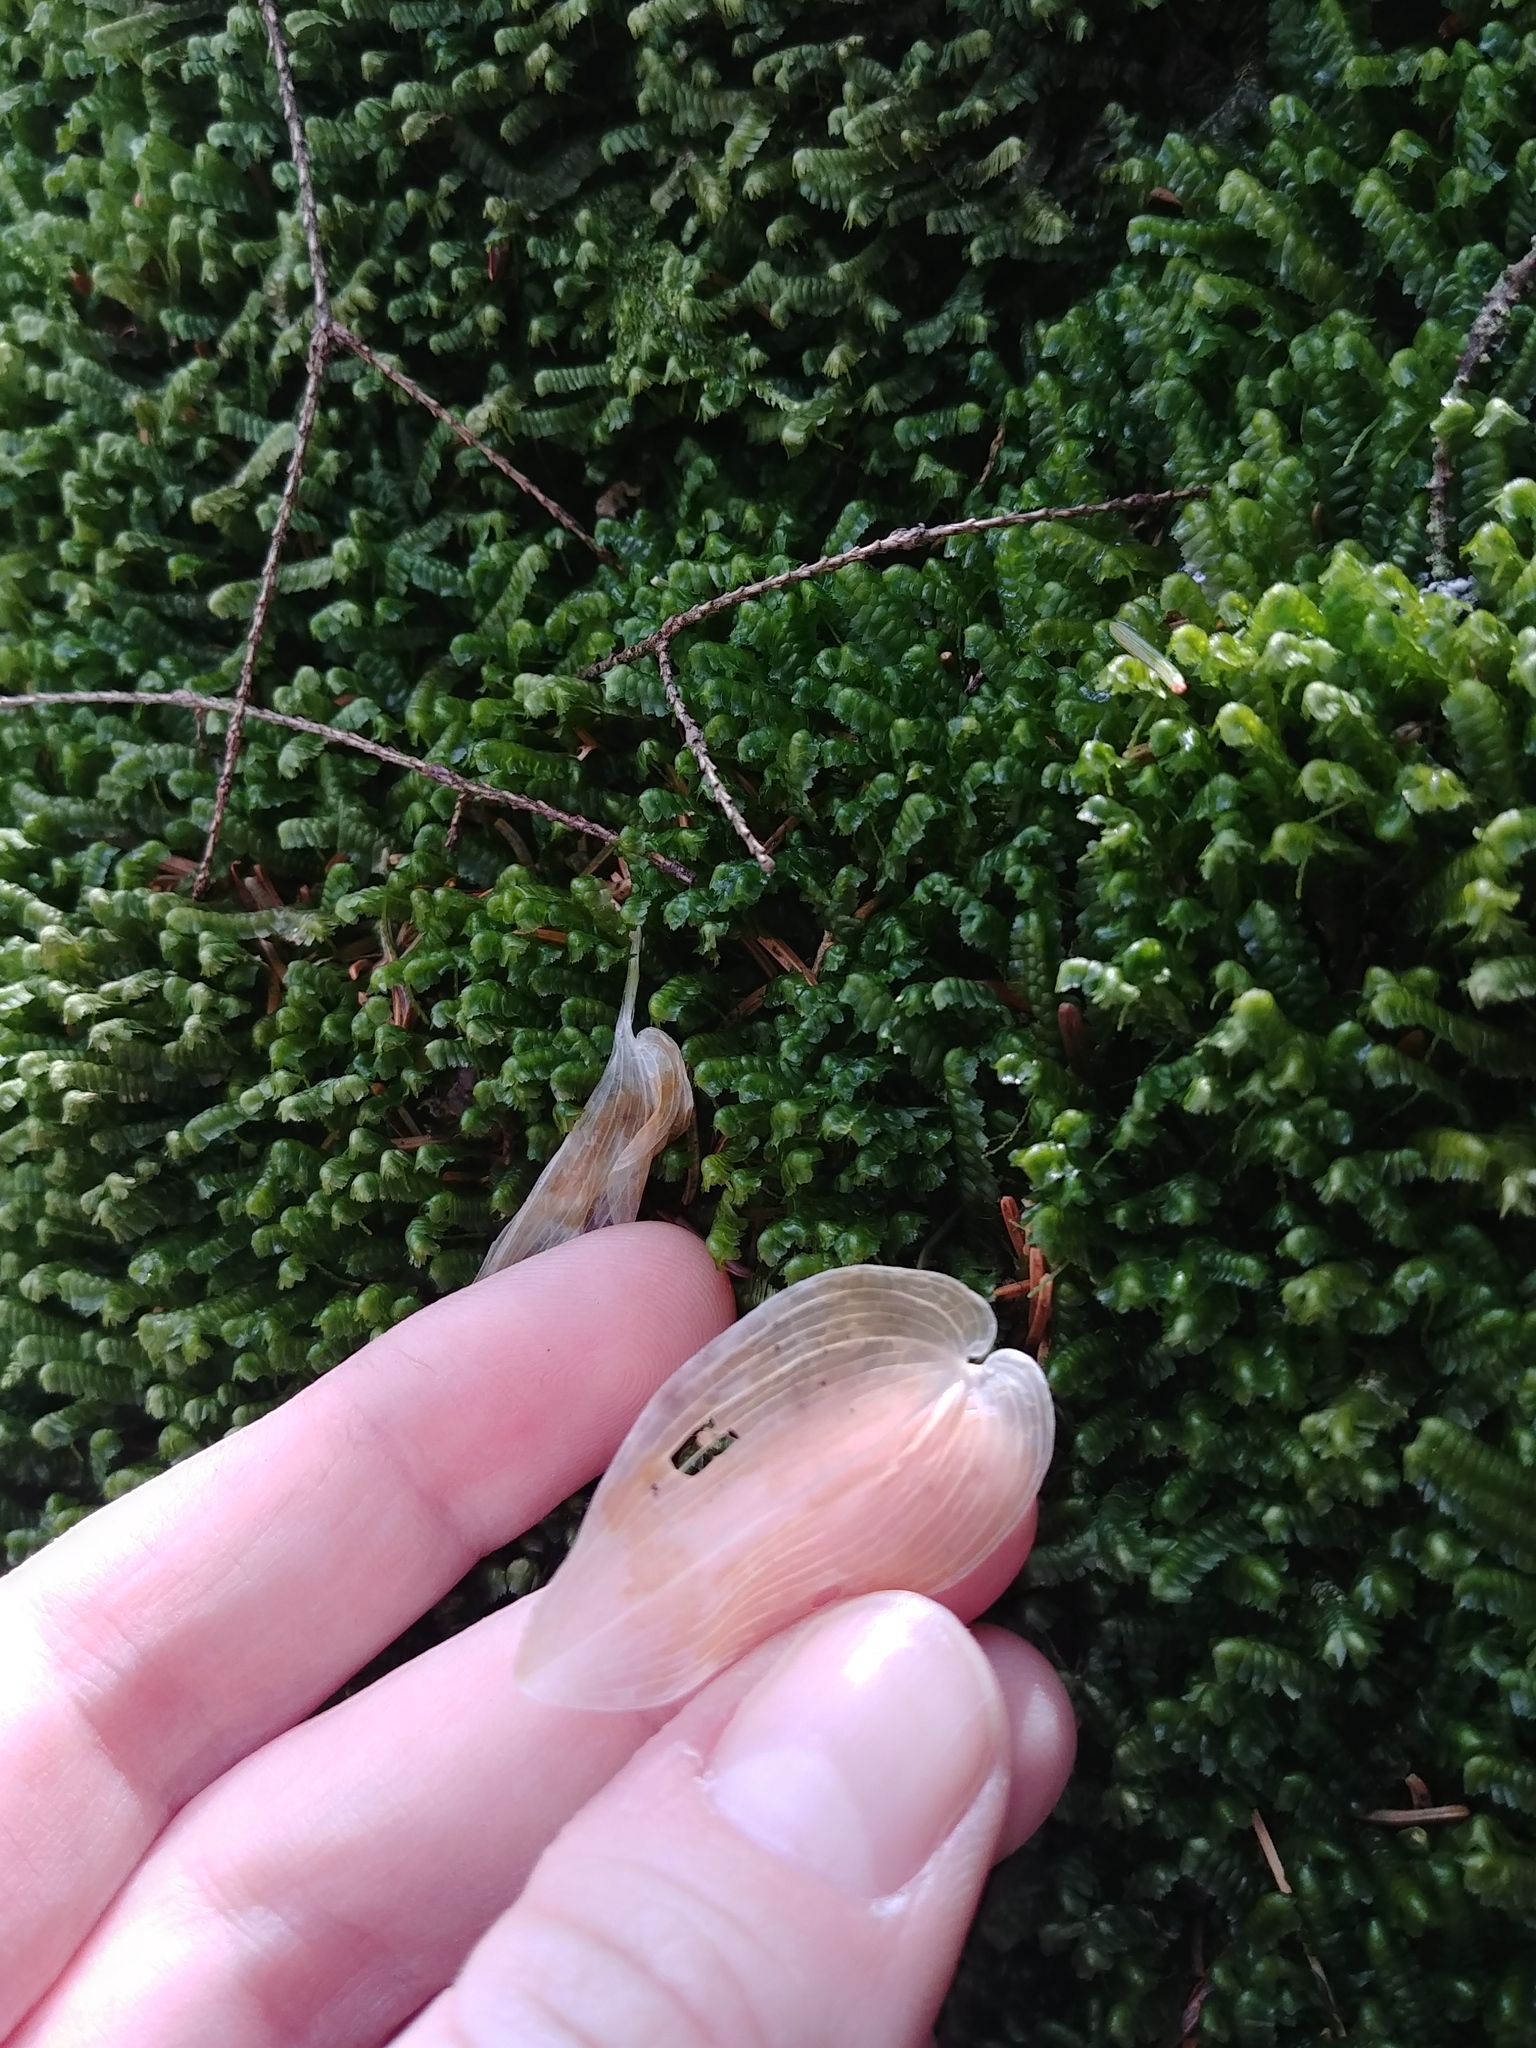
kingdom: Plantae
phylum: Tracheophyta
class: Liliopsida
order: Asparagales
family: Asparagaceae
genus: Maianthemum
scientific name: Maianthemum canadense
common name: False lily-of-the-valley
